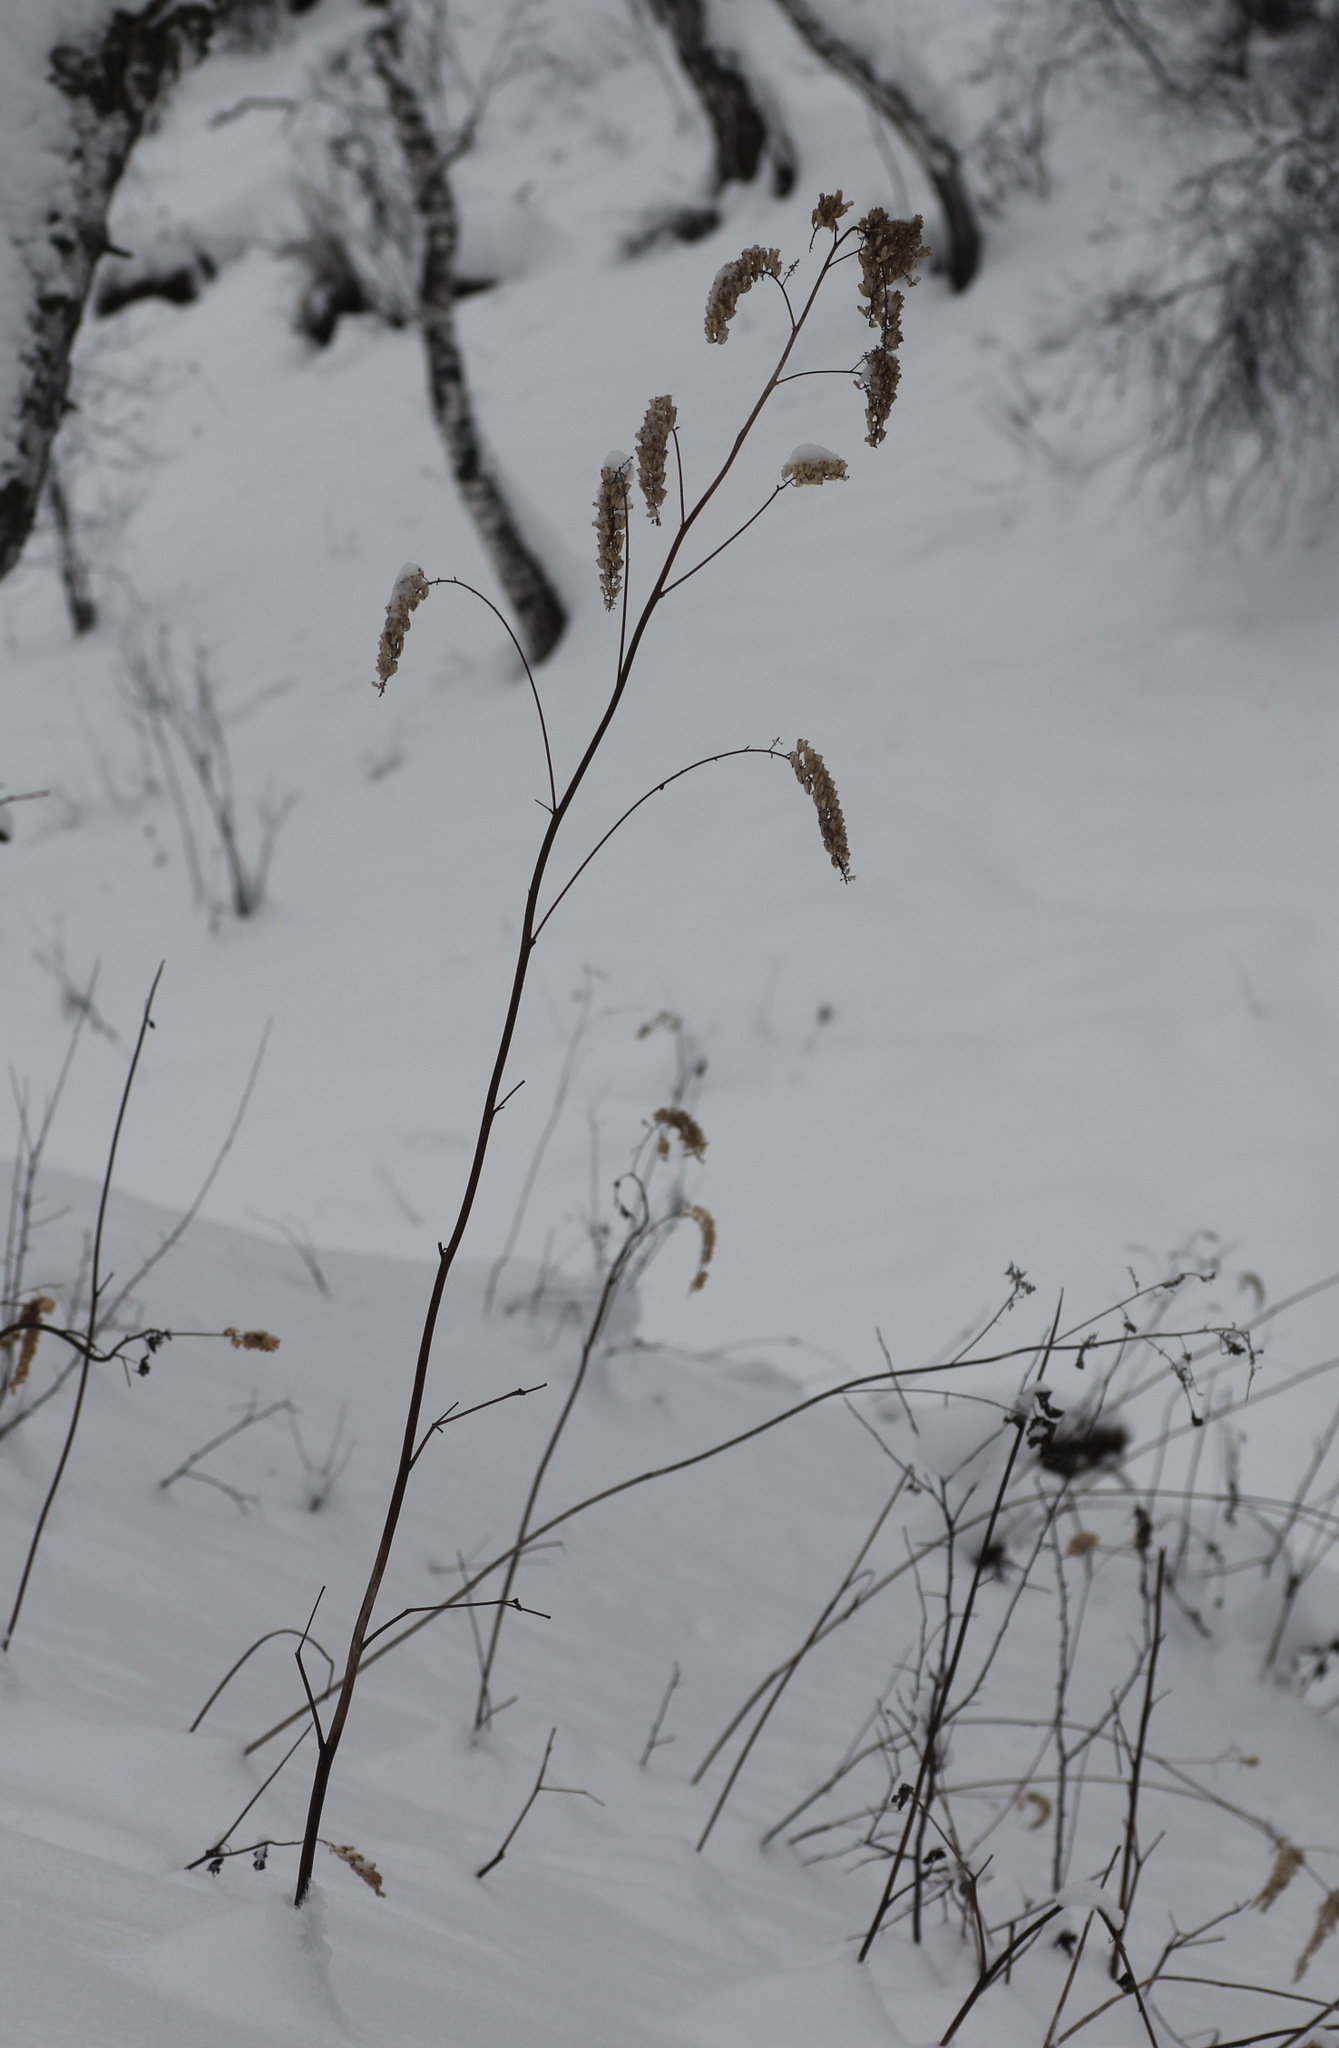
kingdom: Plantae
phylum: Tracheophyta
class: Magnoliopsida
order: Ranunculales
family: Ranunculaceae
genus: Actaea
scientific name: Actaea cimicifuga
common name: Chinese cimicifuga
